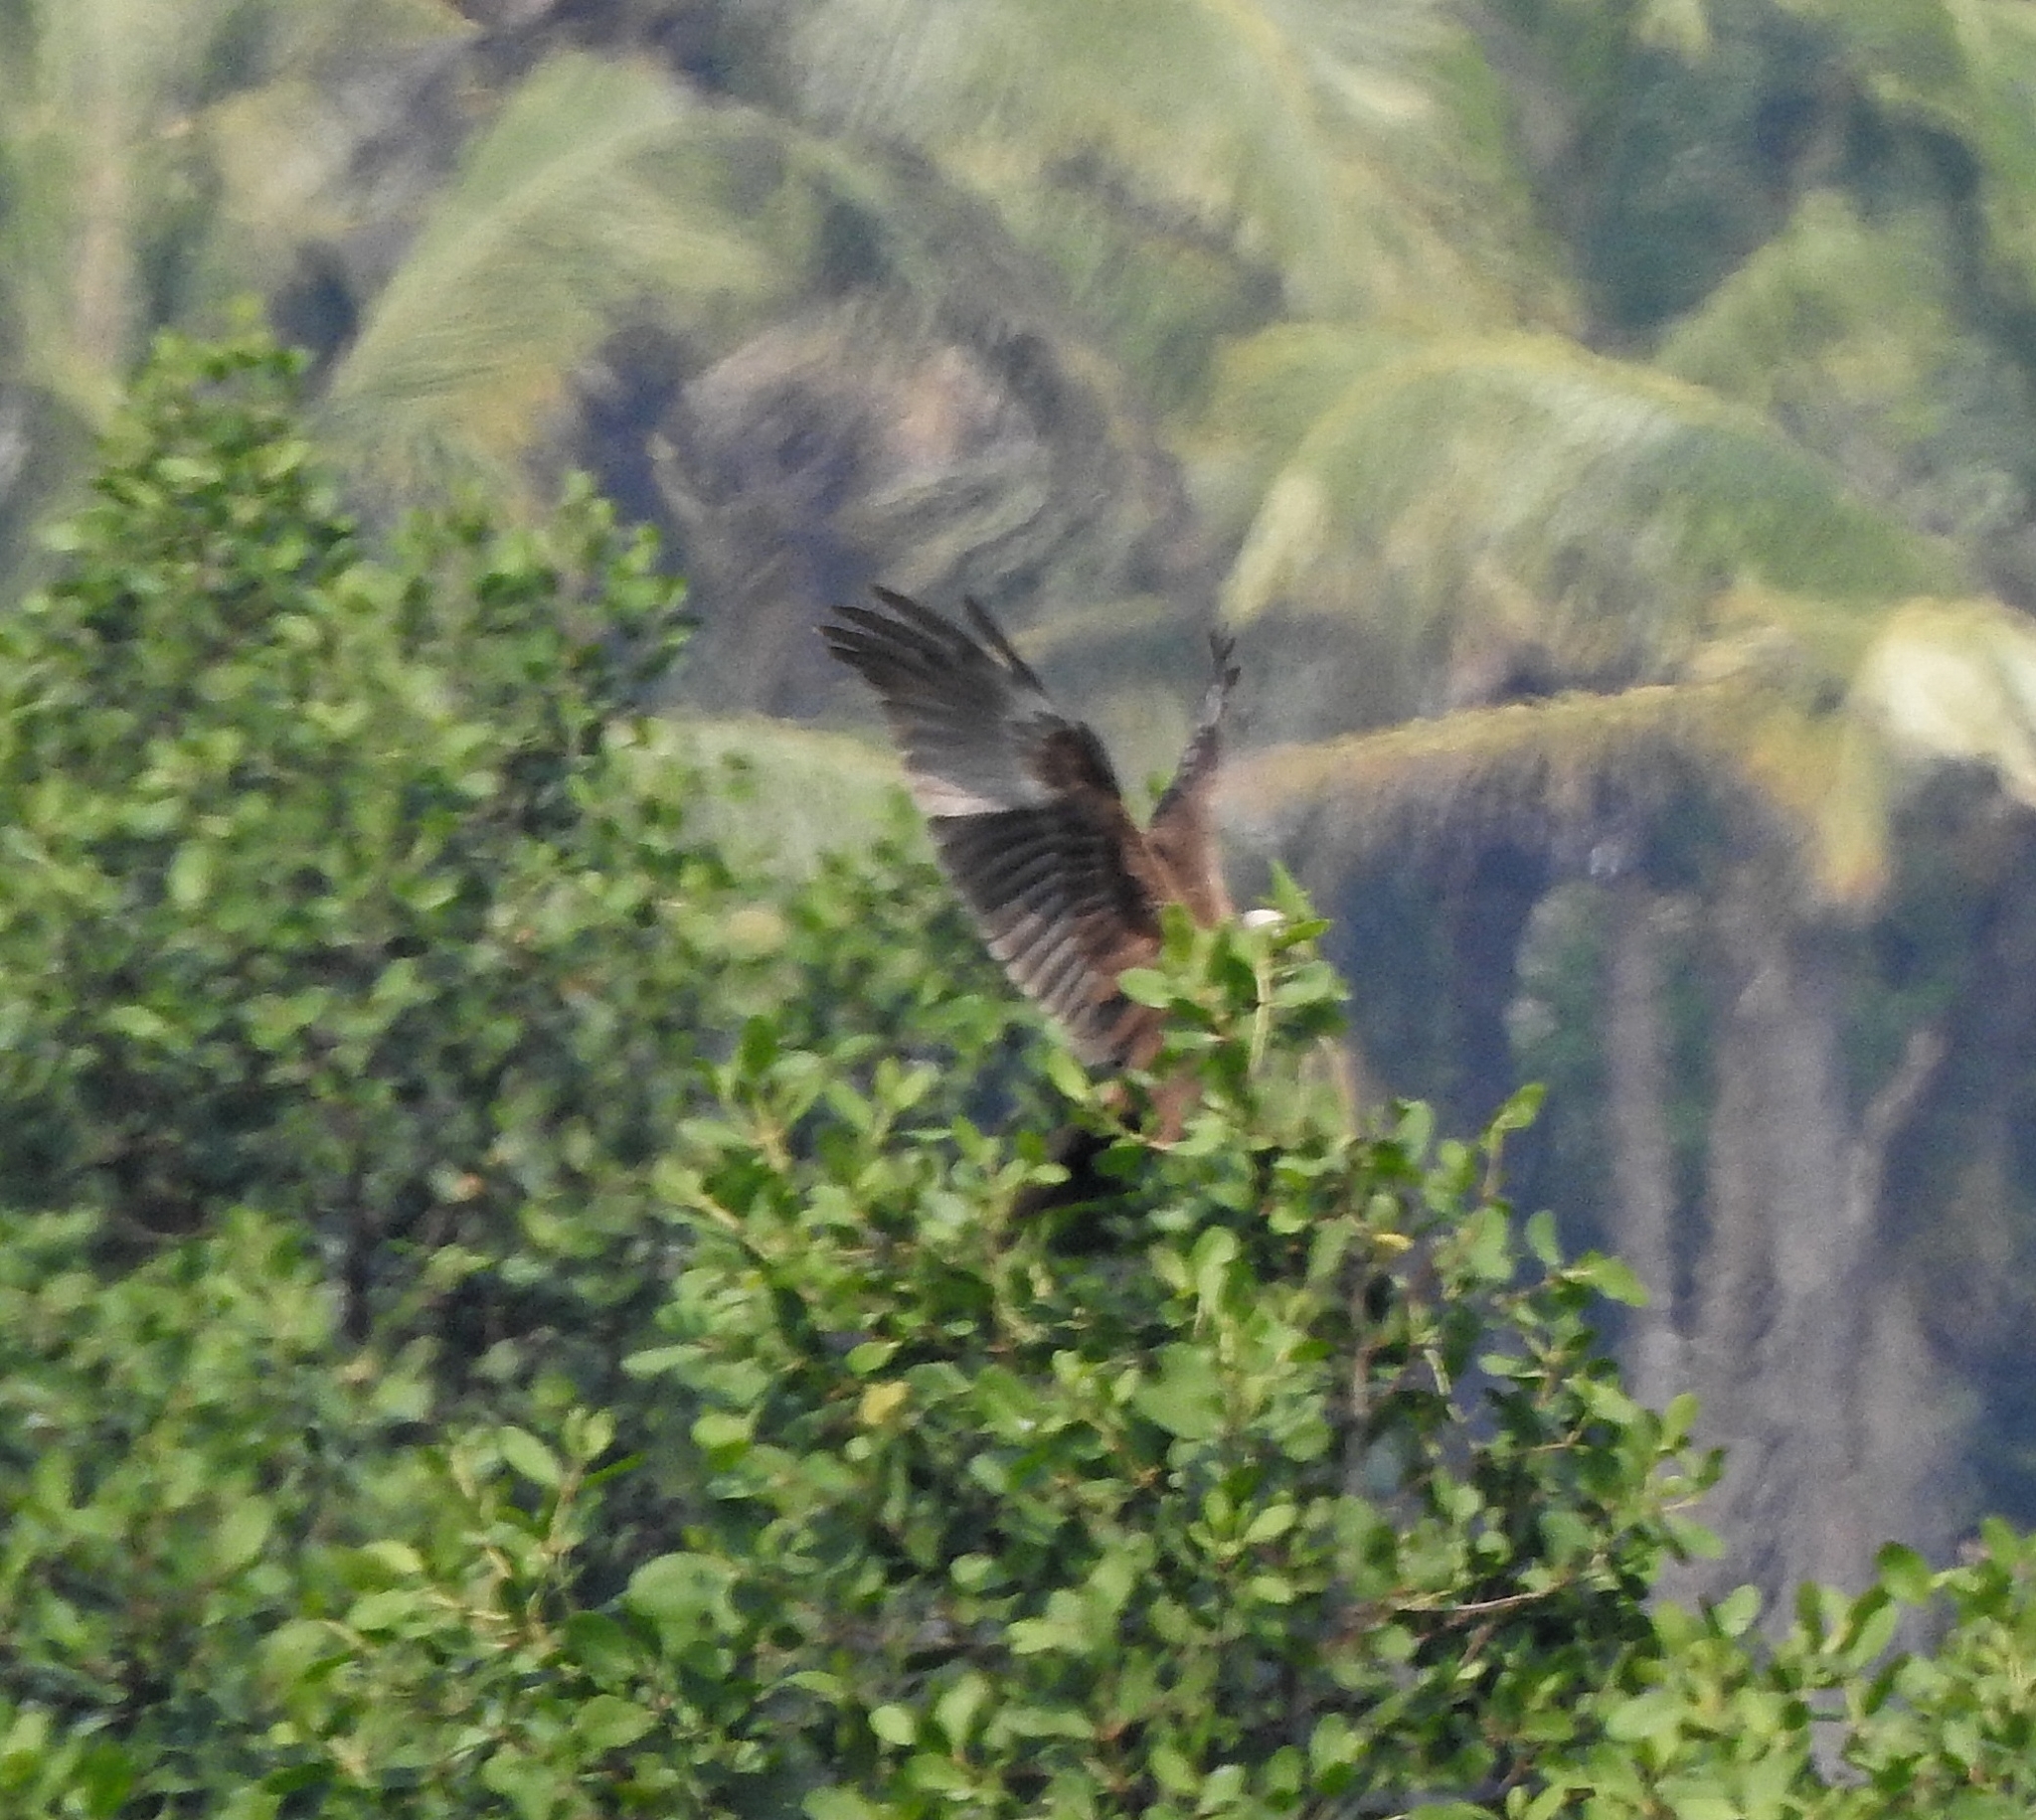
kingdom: Animalia
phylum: Chordata
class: Aves
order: Accipitriformes
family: Accipitridae
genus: Circus
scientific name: Circus aeruginosus
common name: Western marsh harrier
